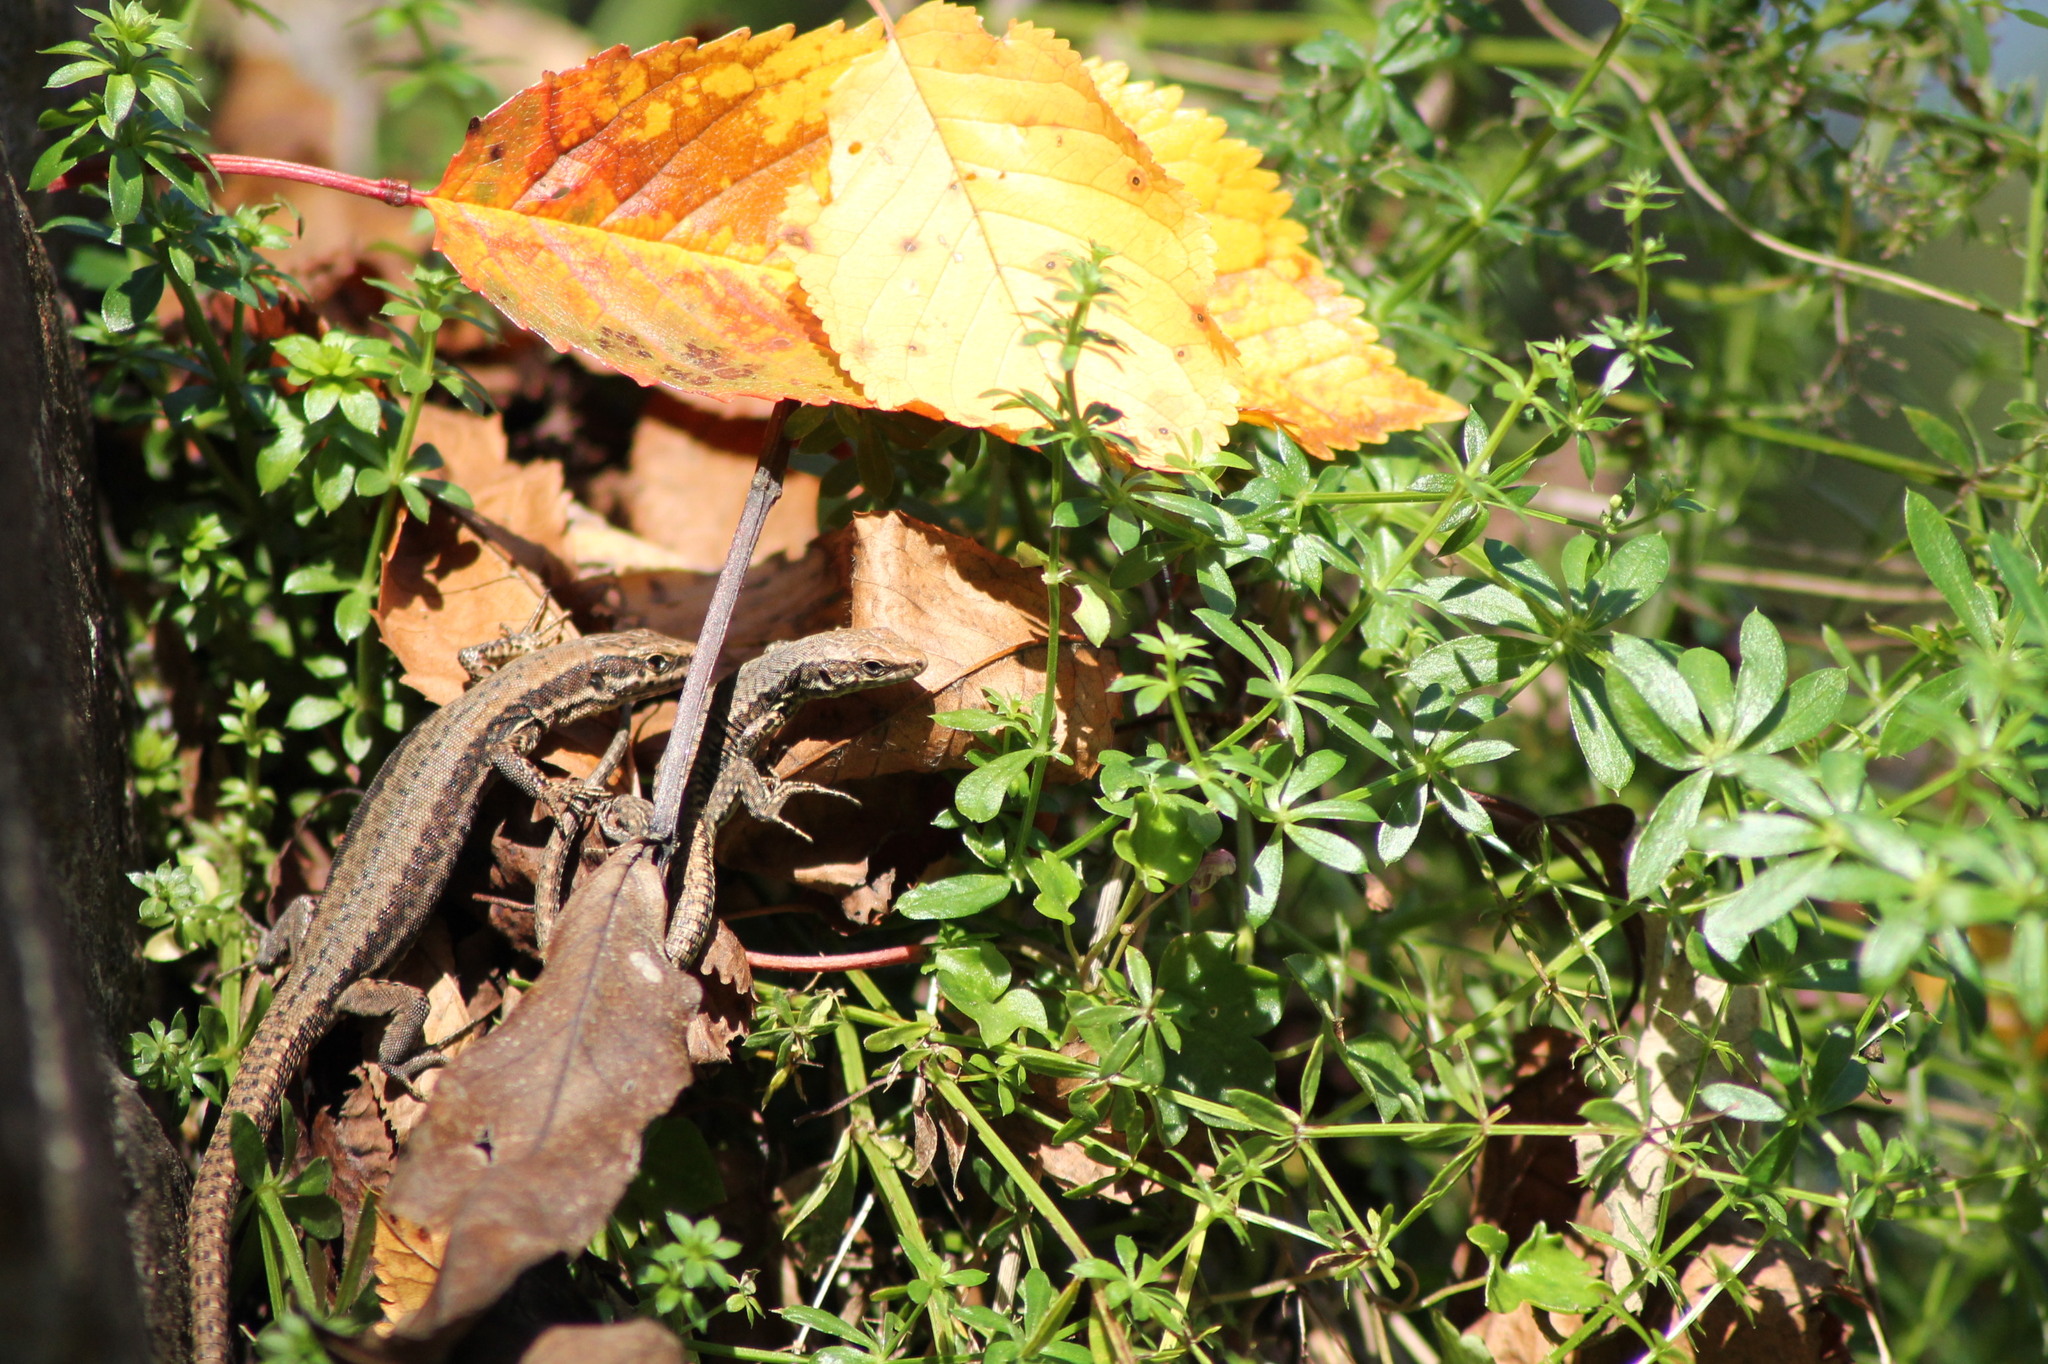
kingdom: Animalia
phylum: Chordata
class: Squamata
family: Lacertidae
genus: Podarcis
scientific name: Podarcis muralis
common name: Common wall lizard
